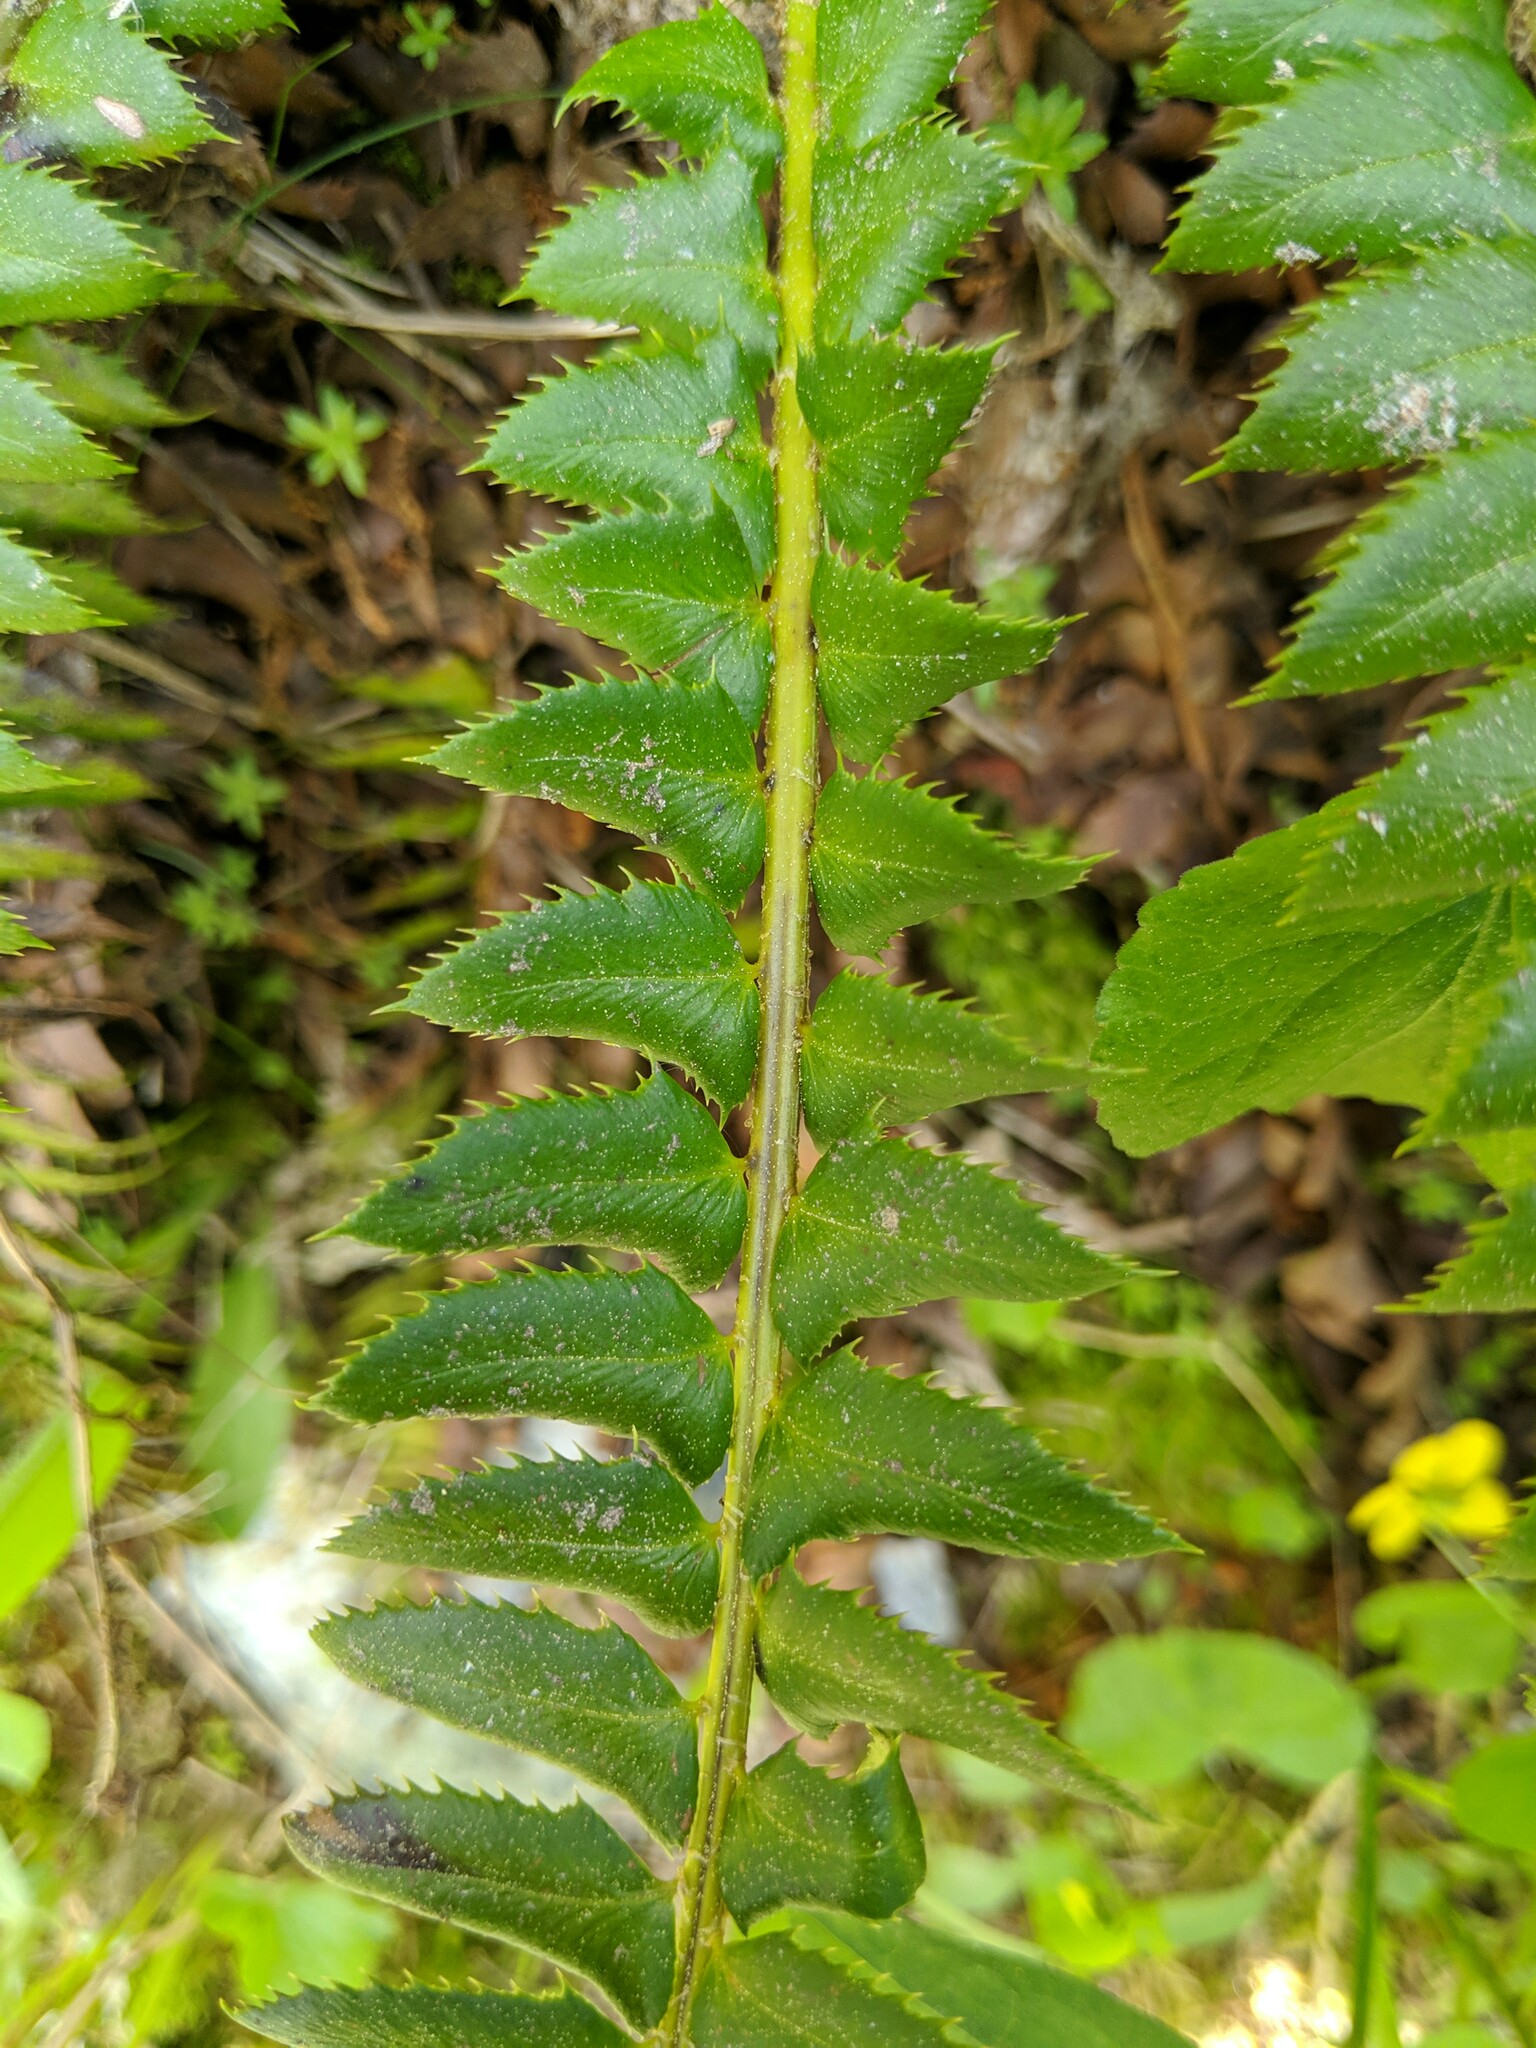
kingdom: Plantae
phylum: Tracheophyta
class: Polypodiopsida
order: Polypodiales
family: Dryopteridaceae
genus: Polystichum
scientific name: Polystichum lonchitis
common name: Holly fern
